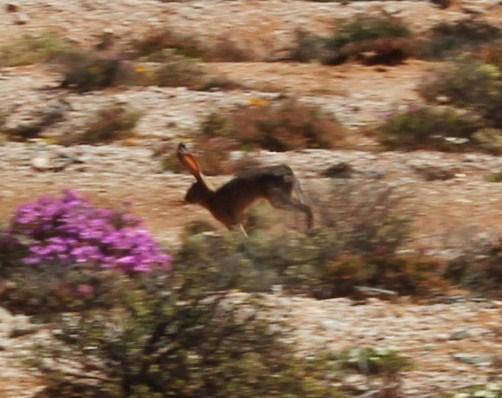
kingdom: Animalia
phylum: Chordata
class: Mammalia
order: Lagomorpha
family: Leporidae
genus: Lepus
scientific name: Lepus capensis
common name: Cape hare
